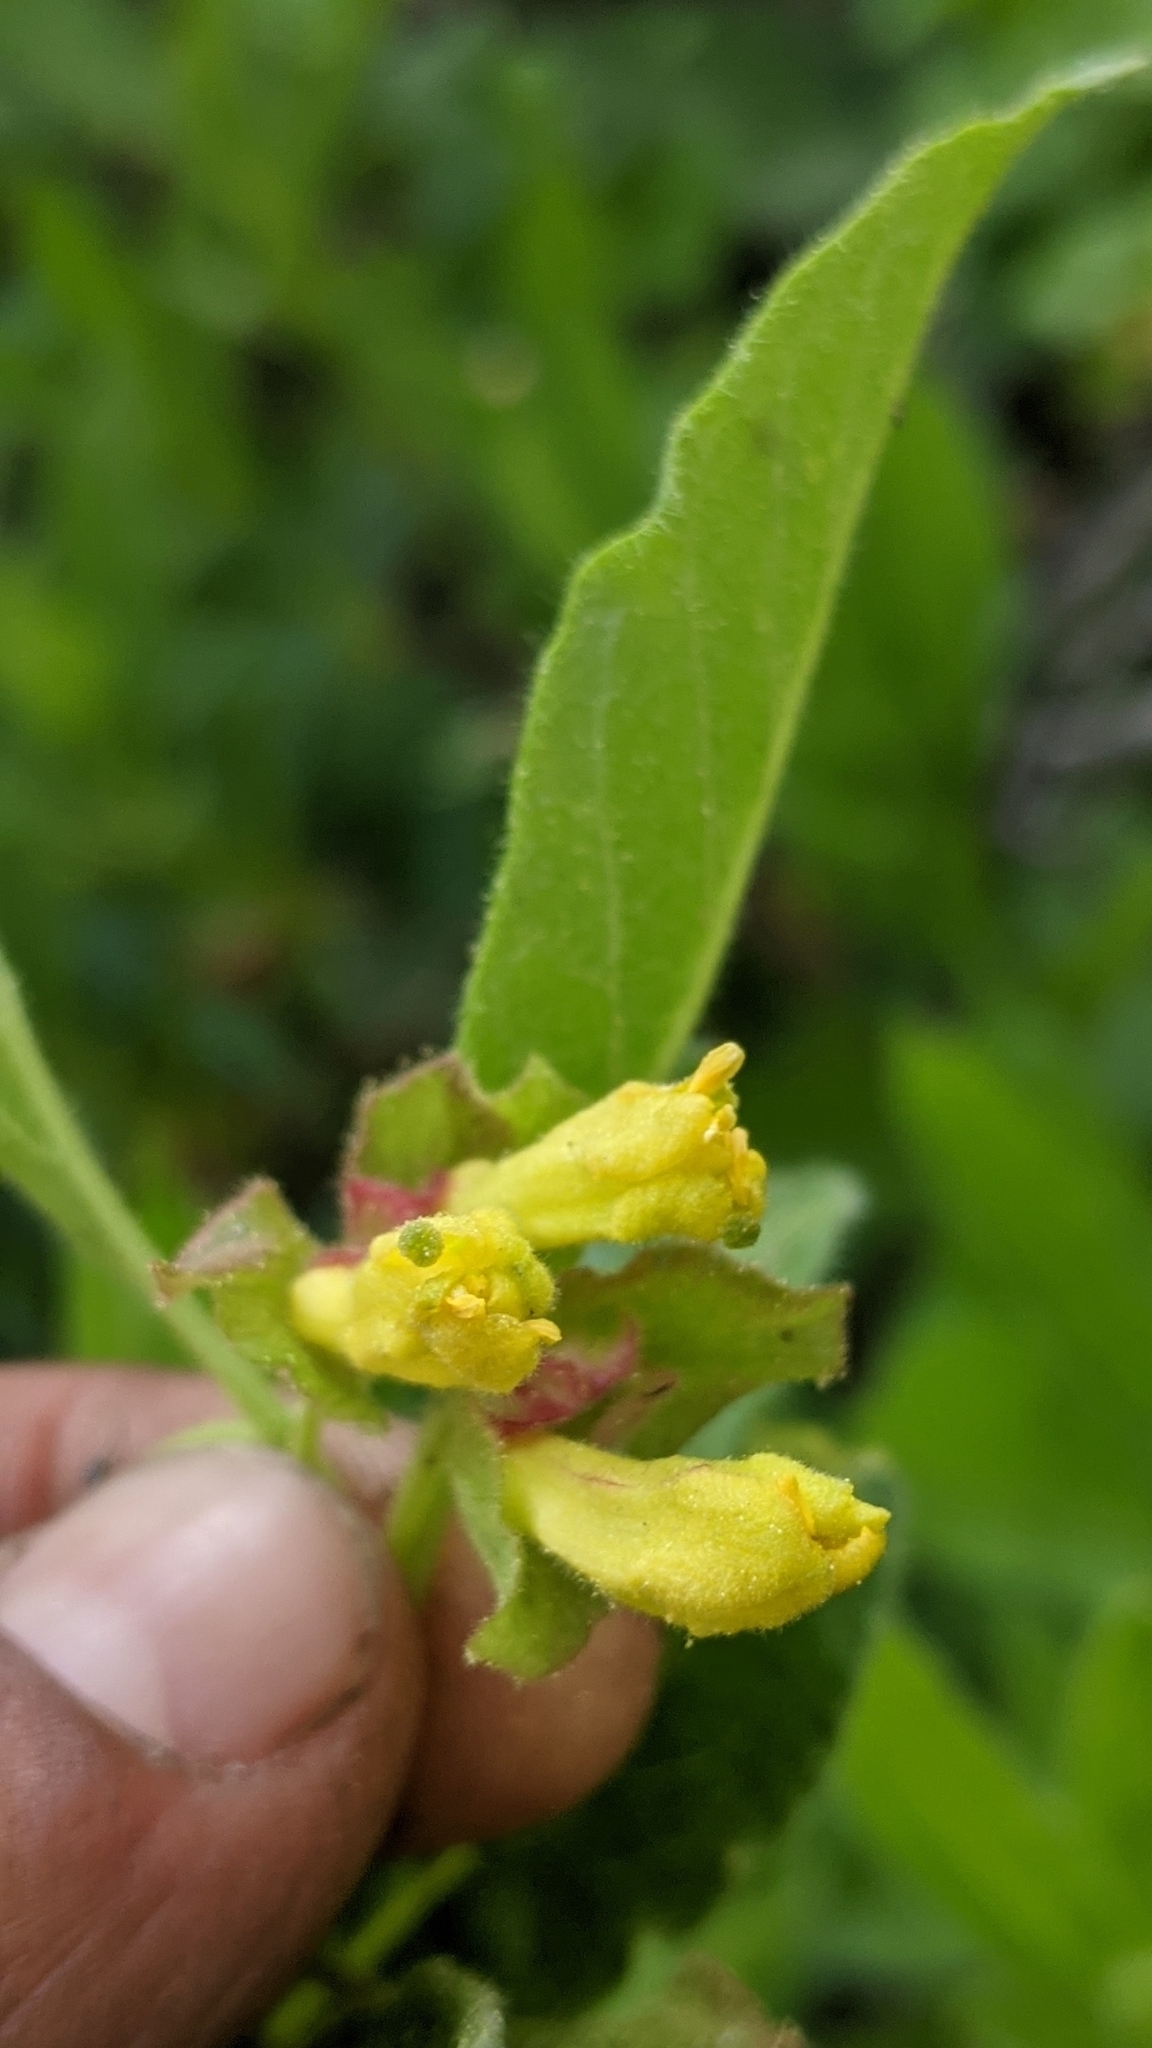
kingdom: Plantae
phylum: Tracheophyta
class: Magnoliopsida
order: Dipsacales
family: Caprifoliaceae
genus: Lonicera
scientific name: Lonicera involucrata
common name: Californian honeysuckle
